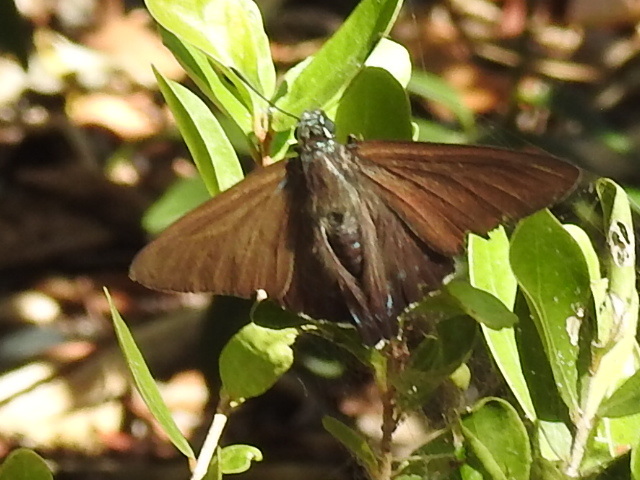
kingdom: Animalia
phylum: Arthropoda
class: Insecta
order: Lepidoptera
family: Hesperiidae
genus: Phocides
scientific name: Phocides pigmalion
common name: Mangrove skipper
